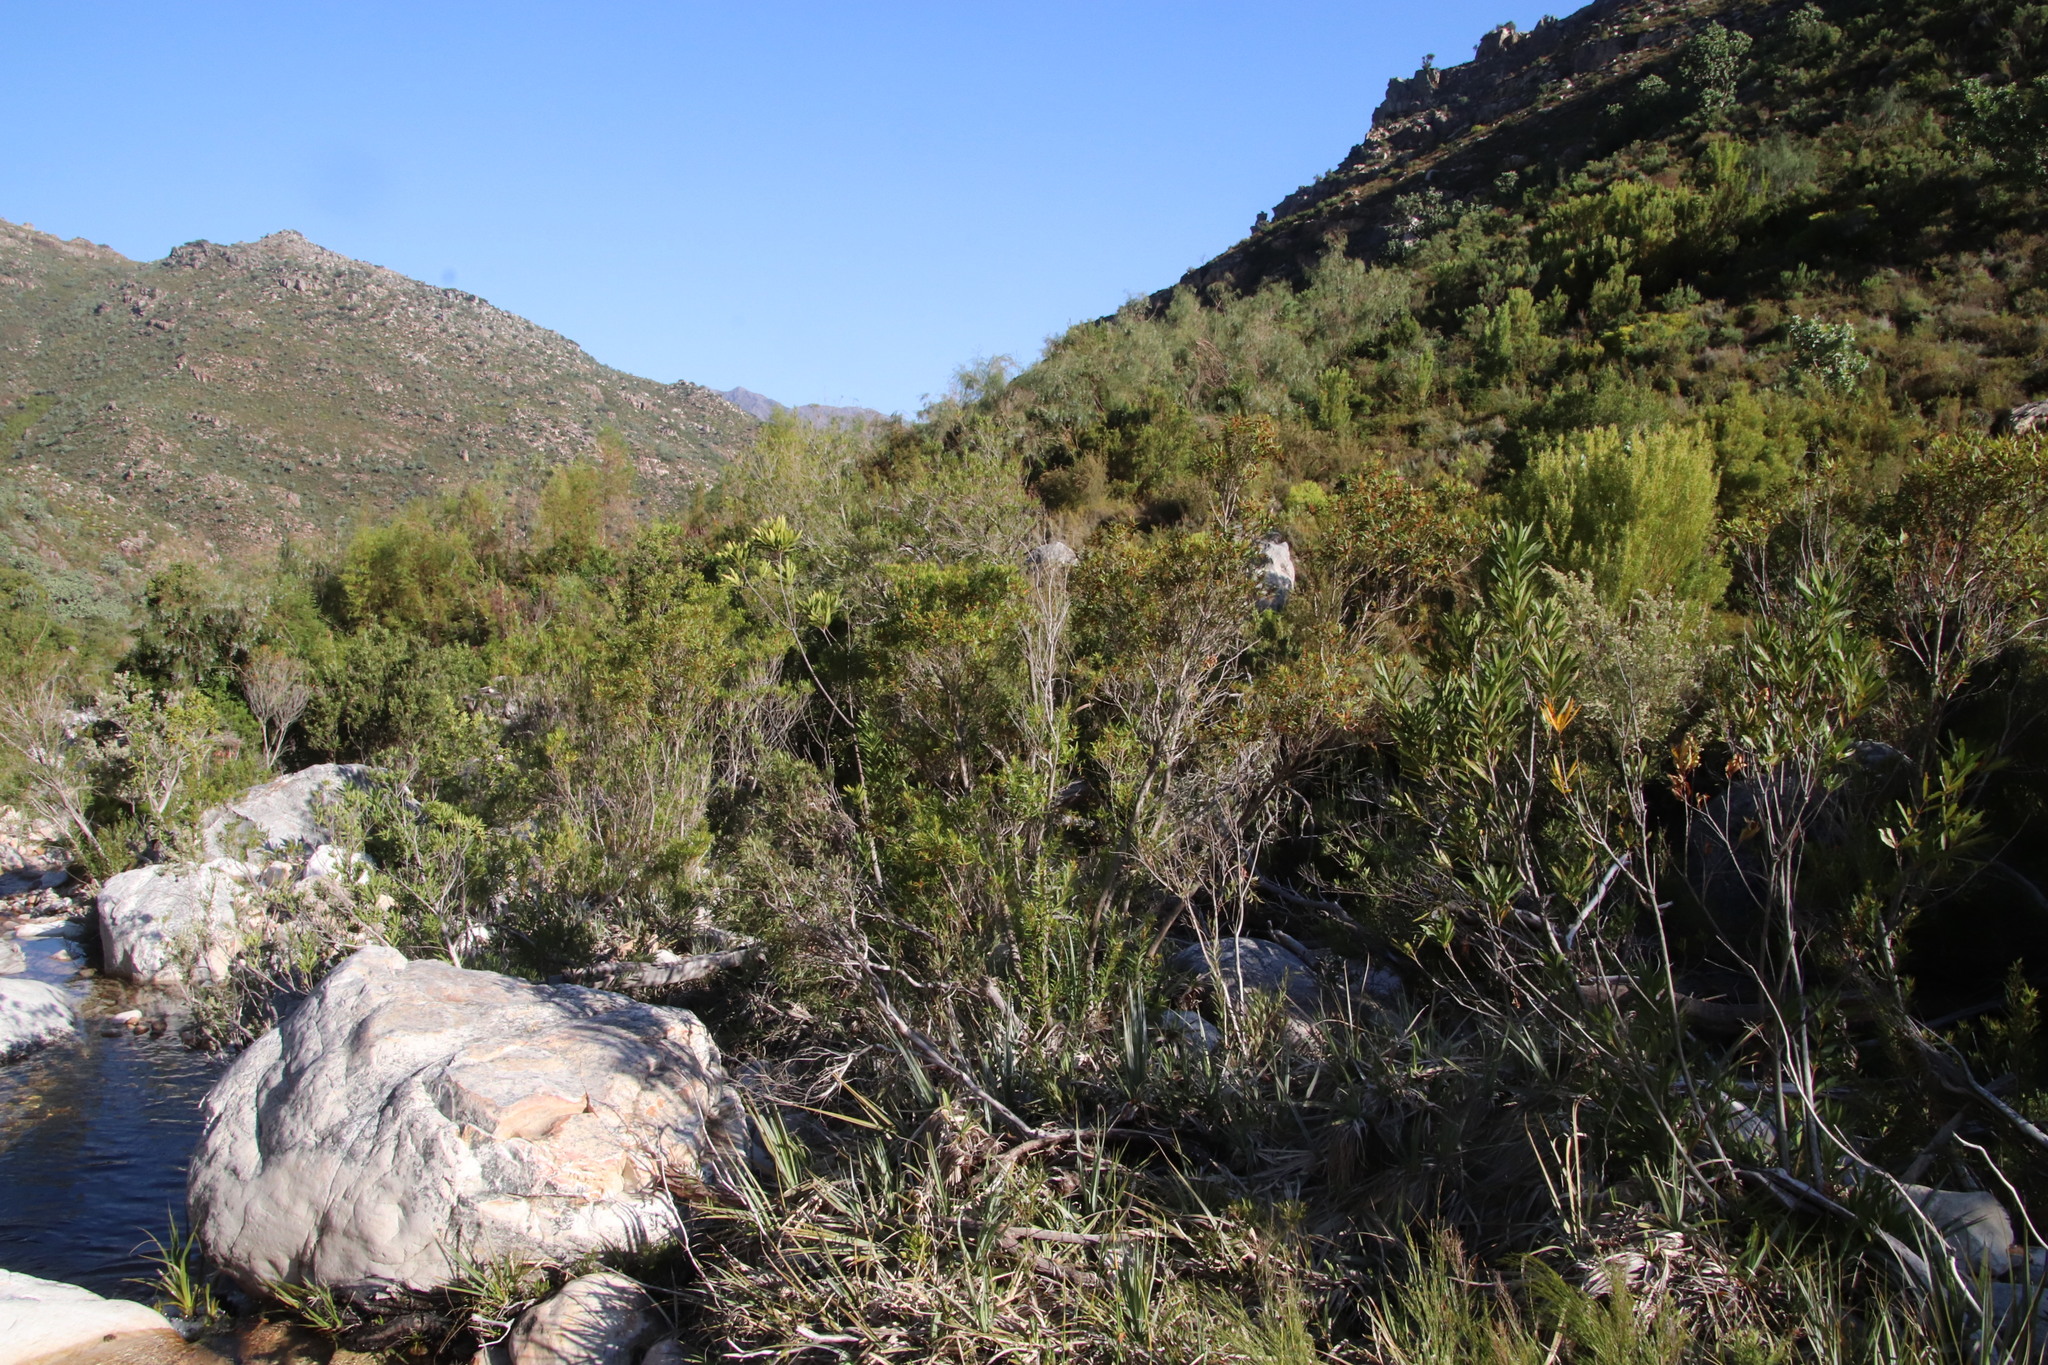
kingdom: Plantae
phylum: Tracheophyta
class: Magnoliopsida
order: Myrtales
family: Myrtaceae
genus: Callistemon
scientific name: Callistemon lanceolatus
